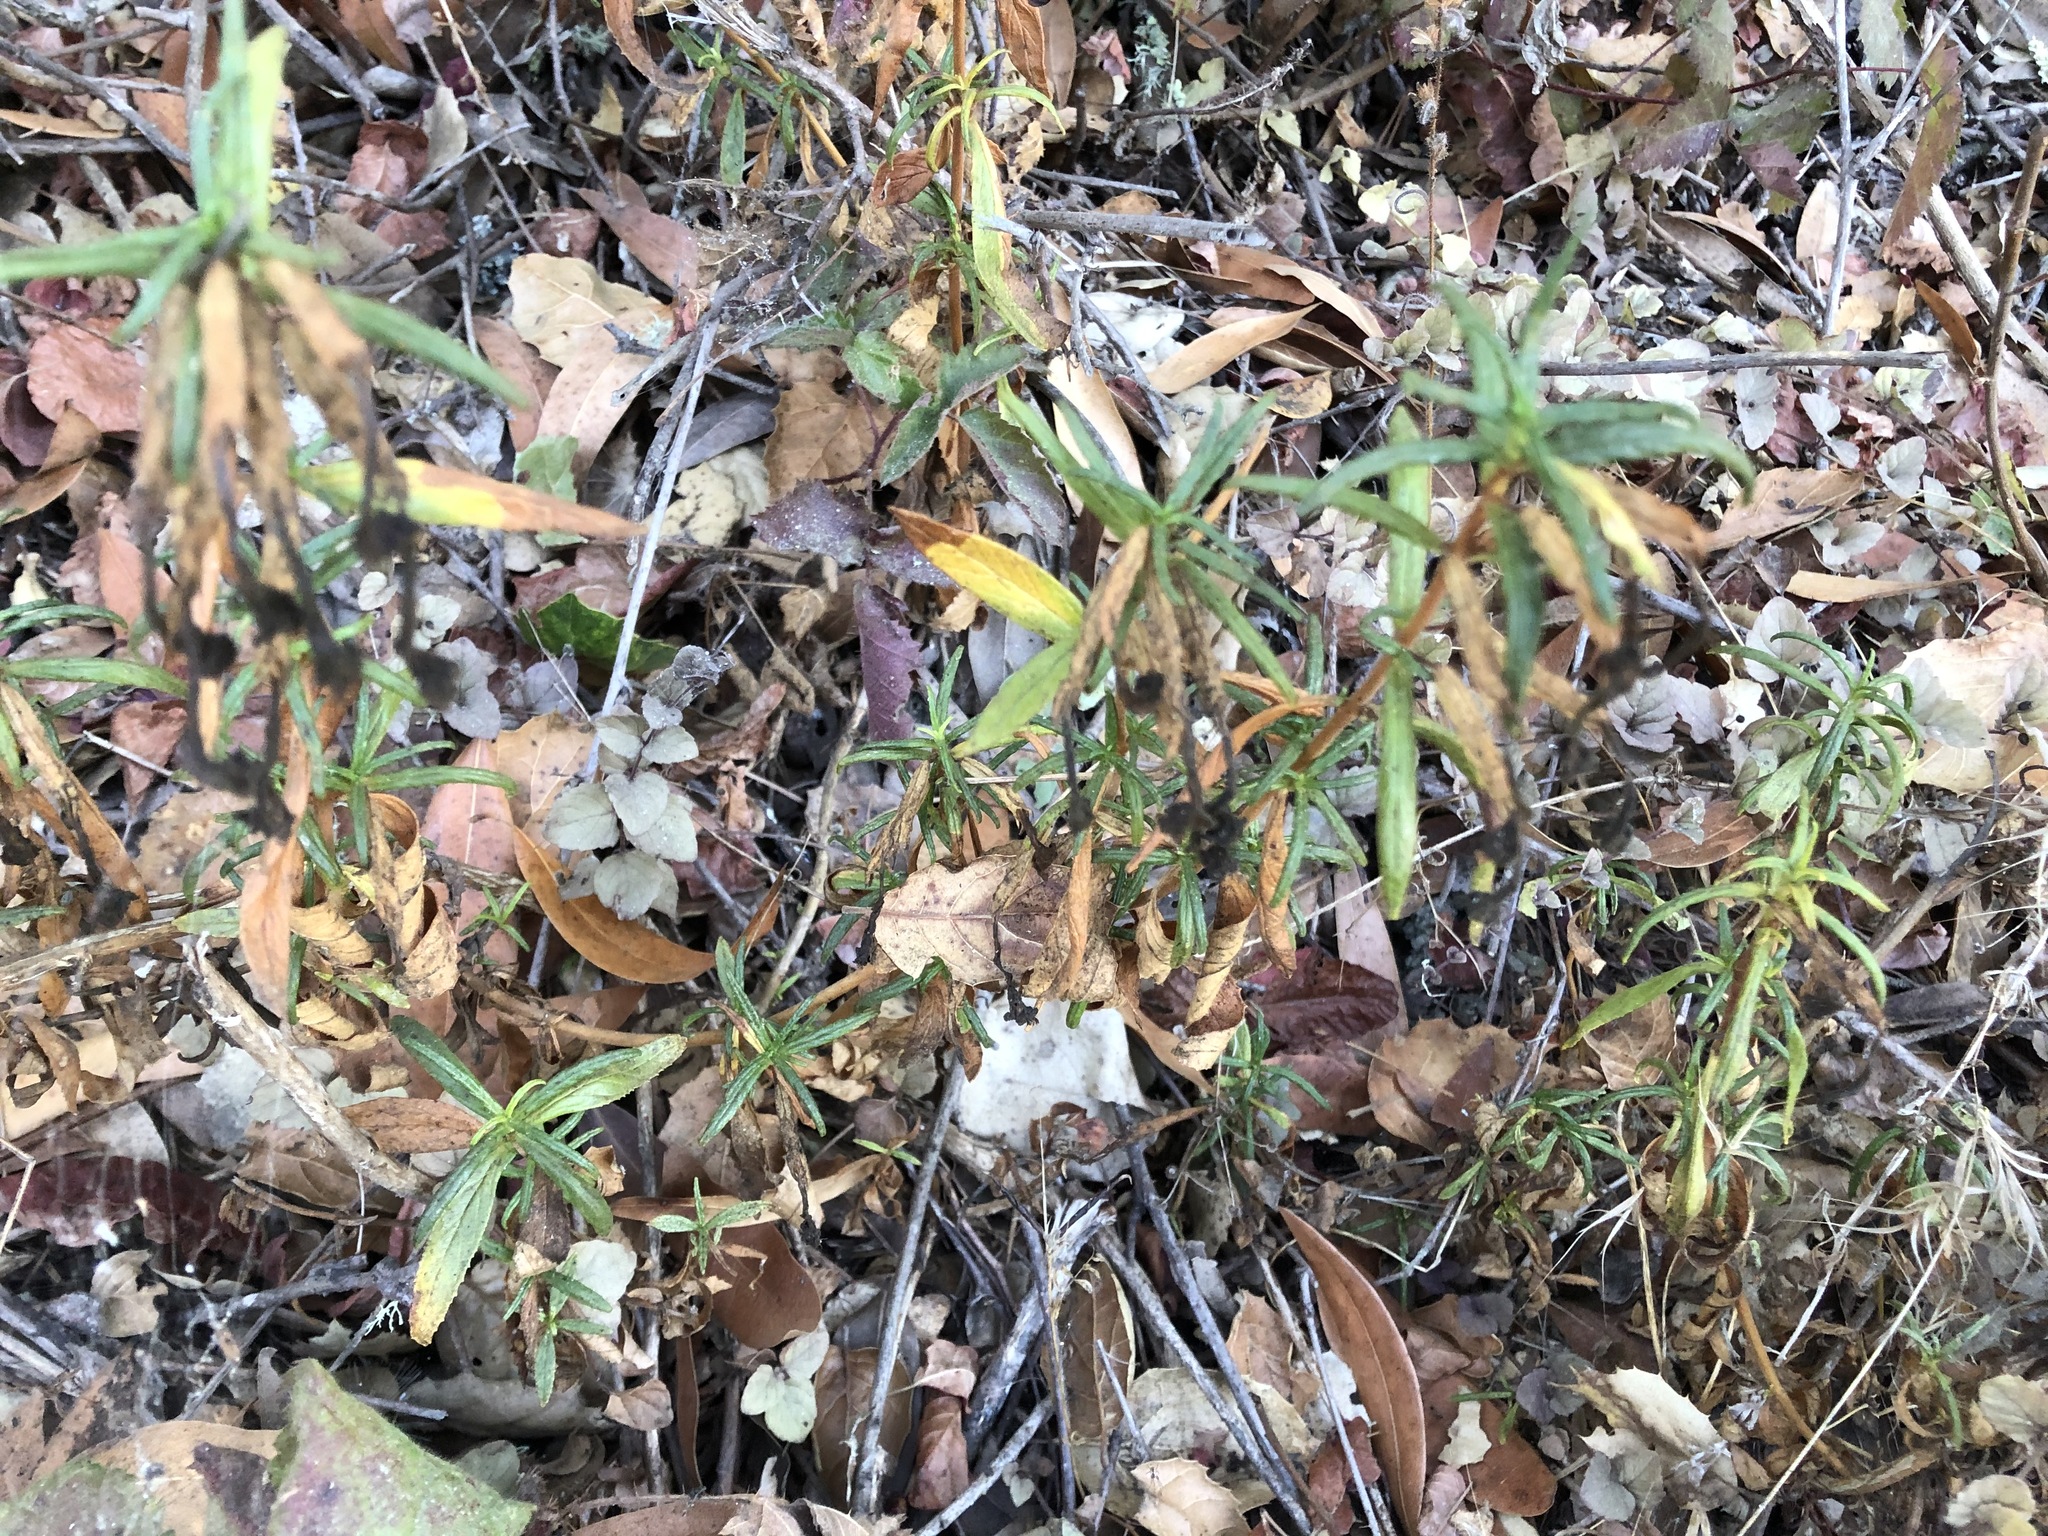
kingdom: Plantae
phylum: Tracheophyta
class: Magnoliopsida
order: Lamiales
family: Phrymaceae
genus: Diplacus
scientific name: Diplacus aurantiacus
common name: Bush monkey-flower
